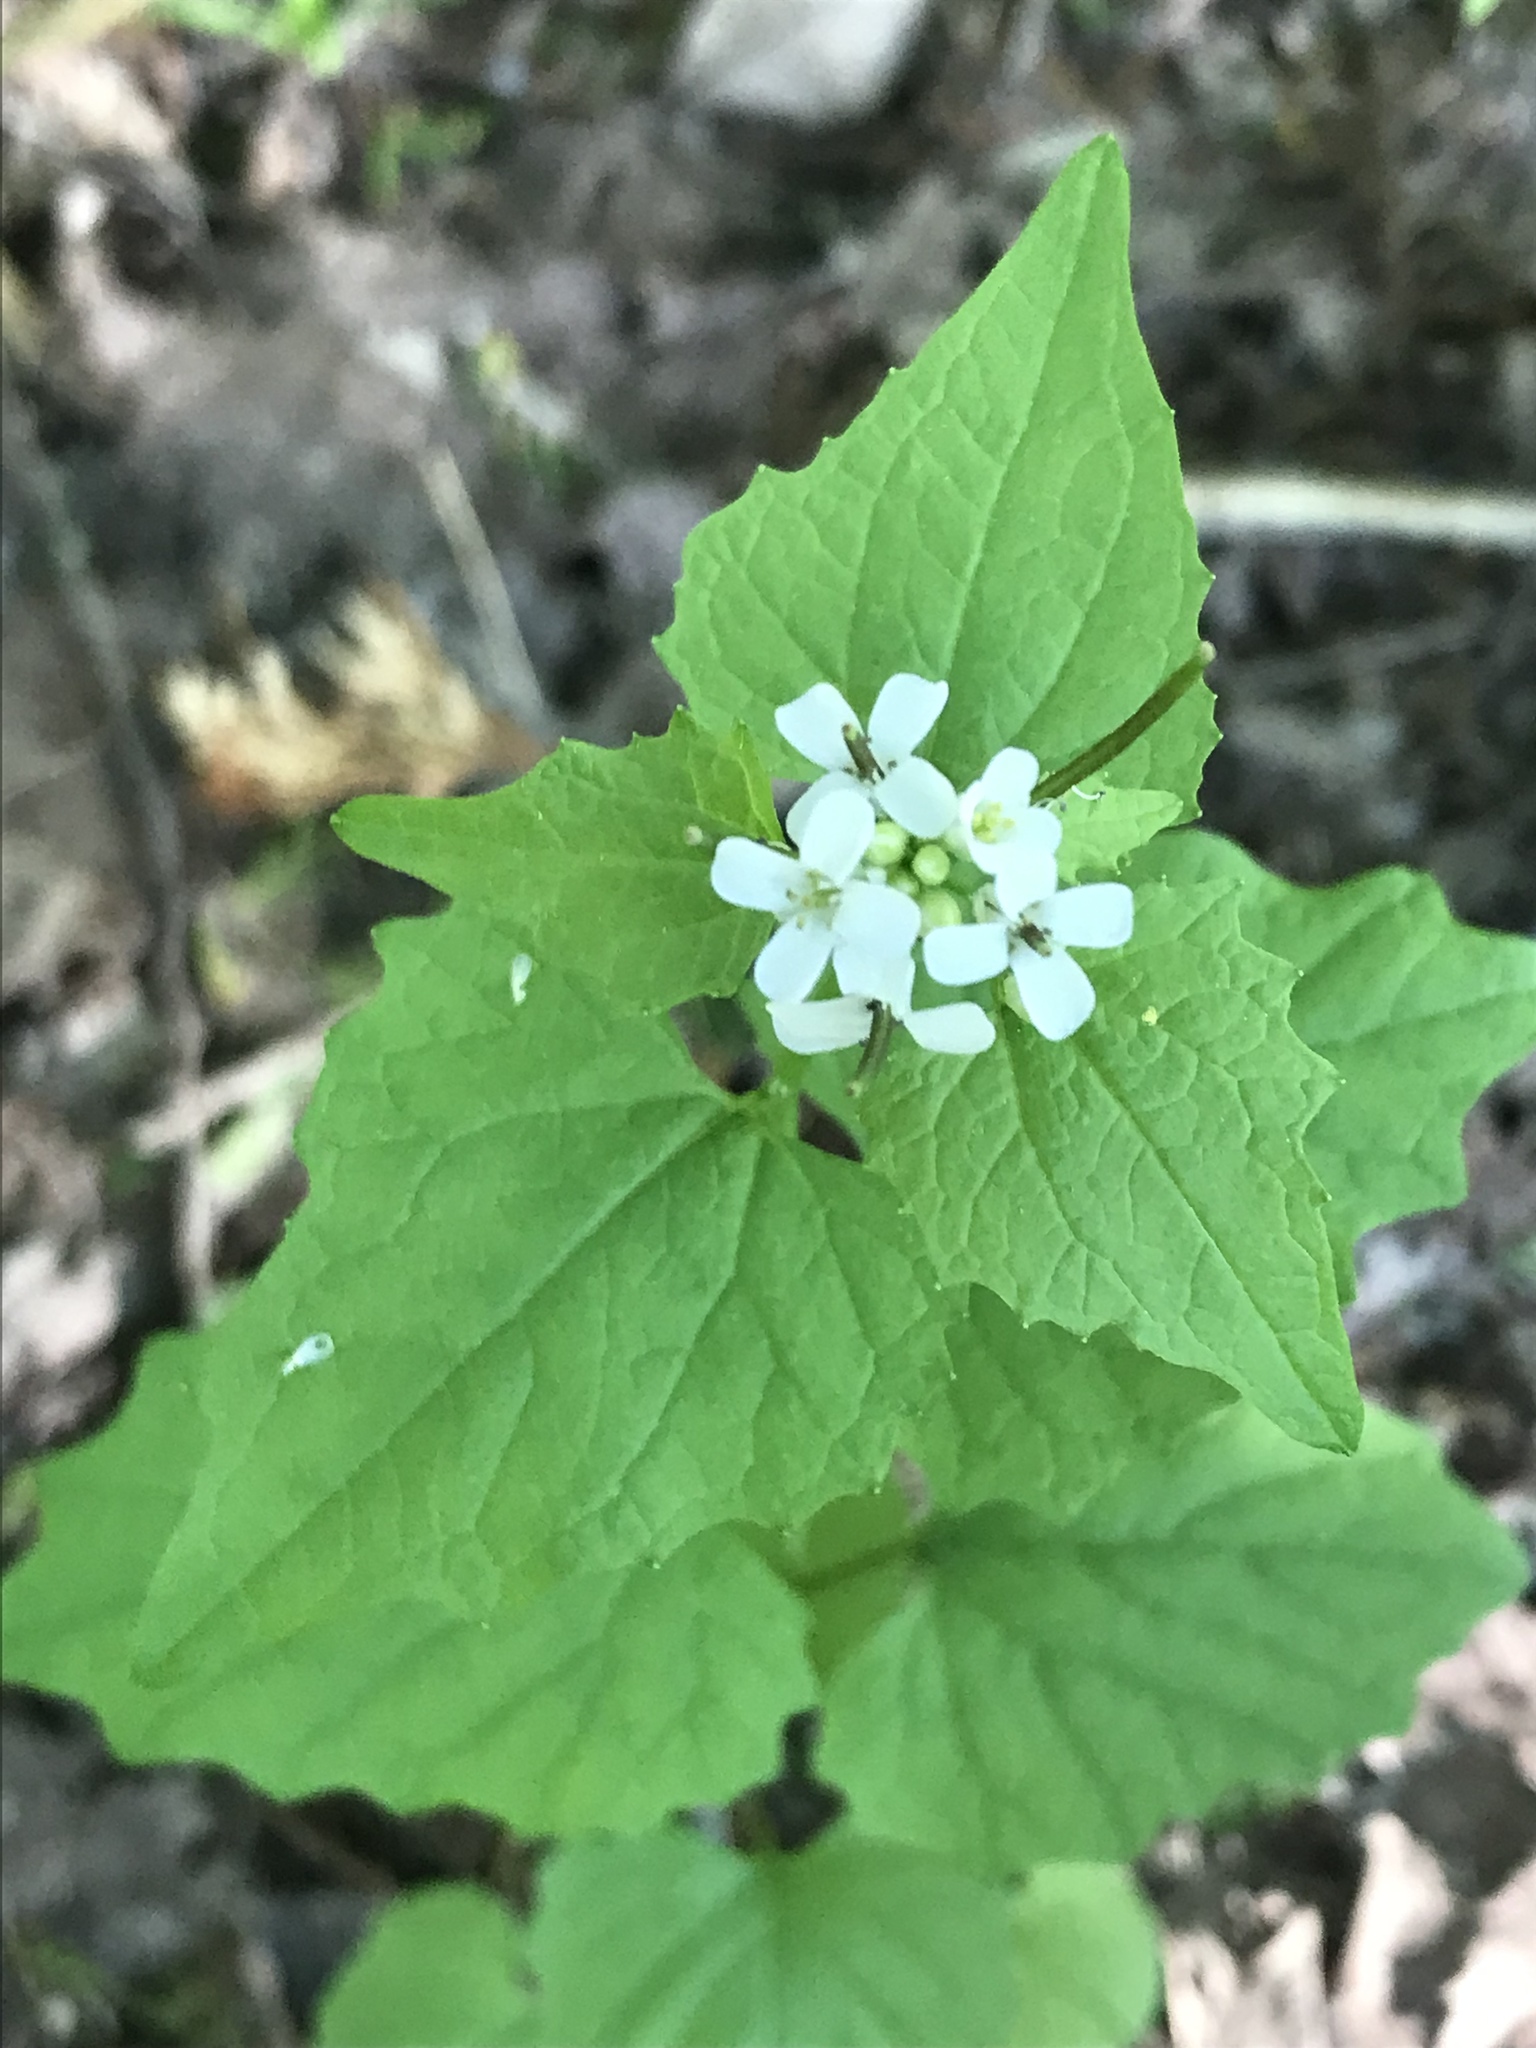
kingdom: Plantae
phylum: Tracheophyta
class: Magnoliopsida
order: Brassicales
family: Brassicaceae
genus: Alliaria
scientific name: Alliaria petiolata
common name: Garlic mustard
